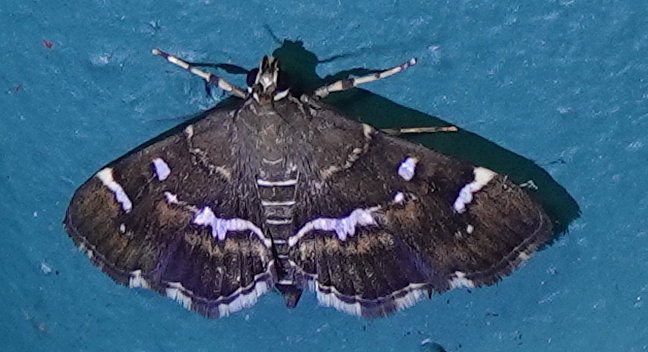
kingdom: Animalia
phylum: Arthropoda
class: Insecta
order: Lepidoptera
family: Crambidae
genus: Hymenia
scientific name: Hymenia perspectalis
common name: Spotted beet webworm
